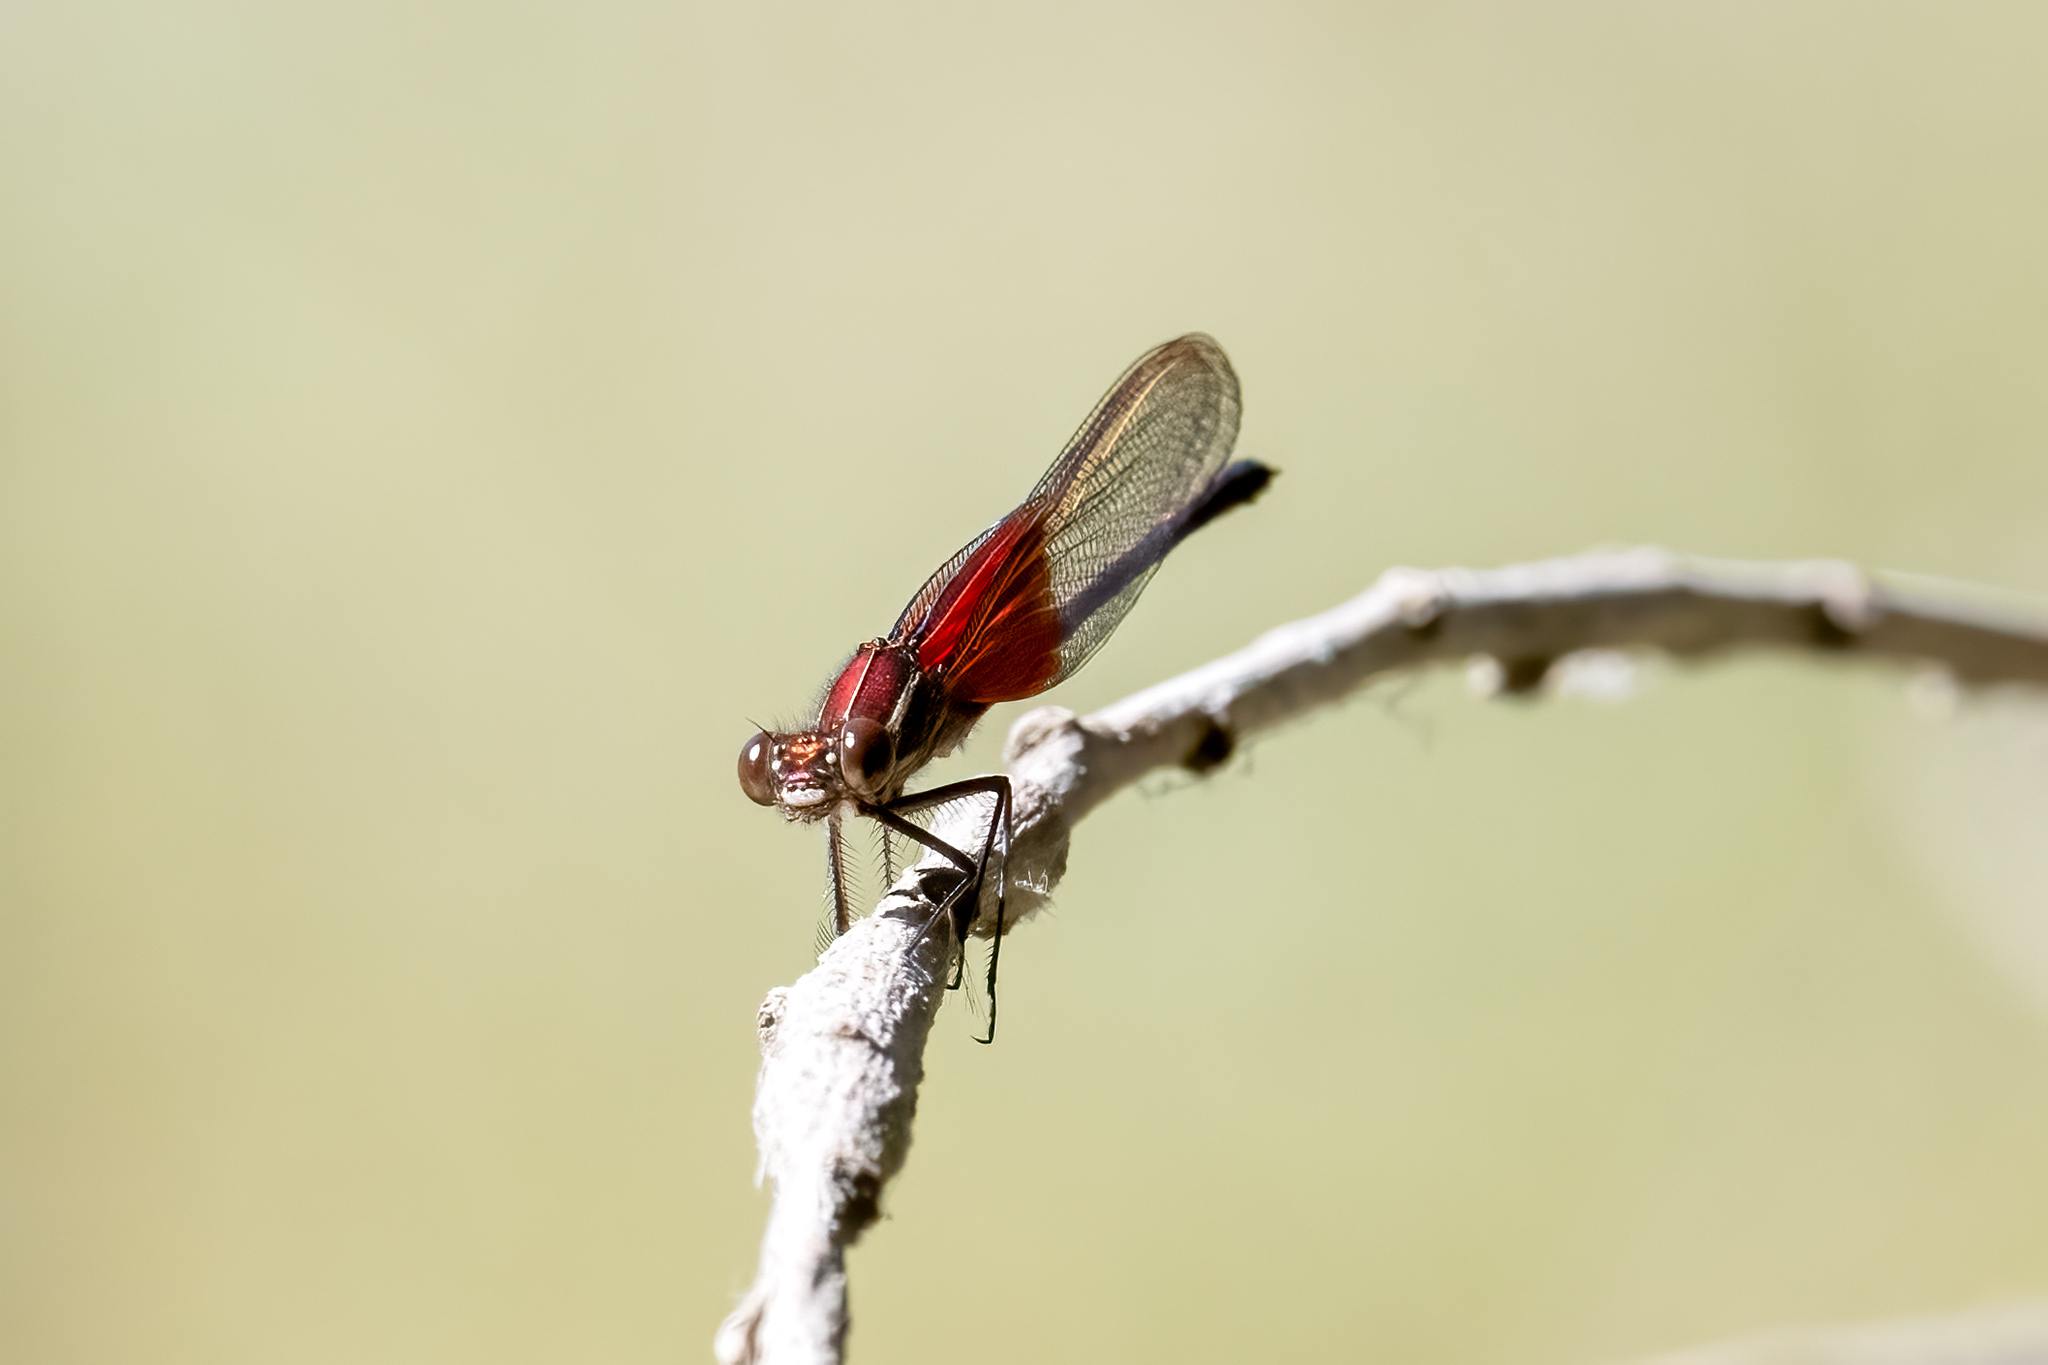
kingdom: Animalia
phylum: Arthropoda
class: Insecta
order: Odonata
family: Calopterygidae
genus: Hetaerina
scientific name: Hetaerina americana
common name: American rubyspot
